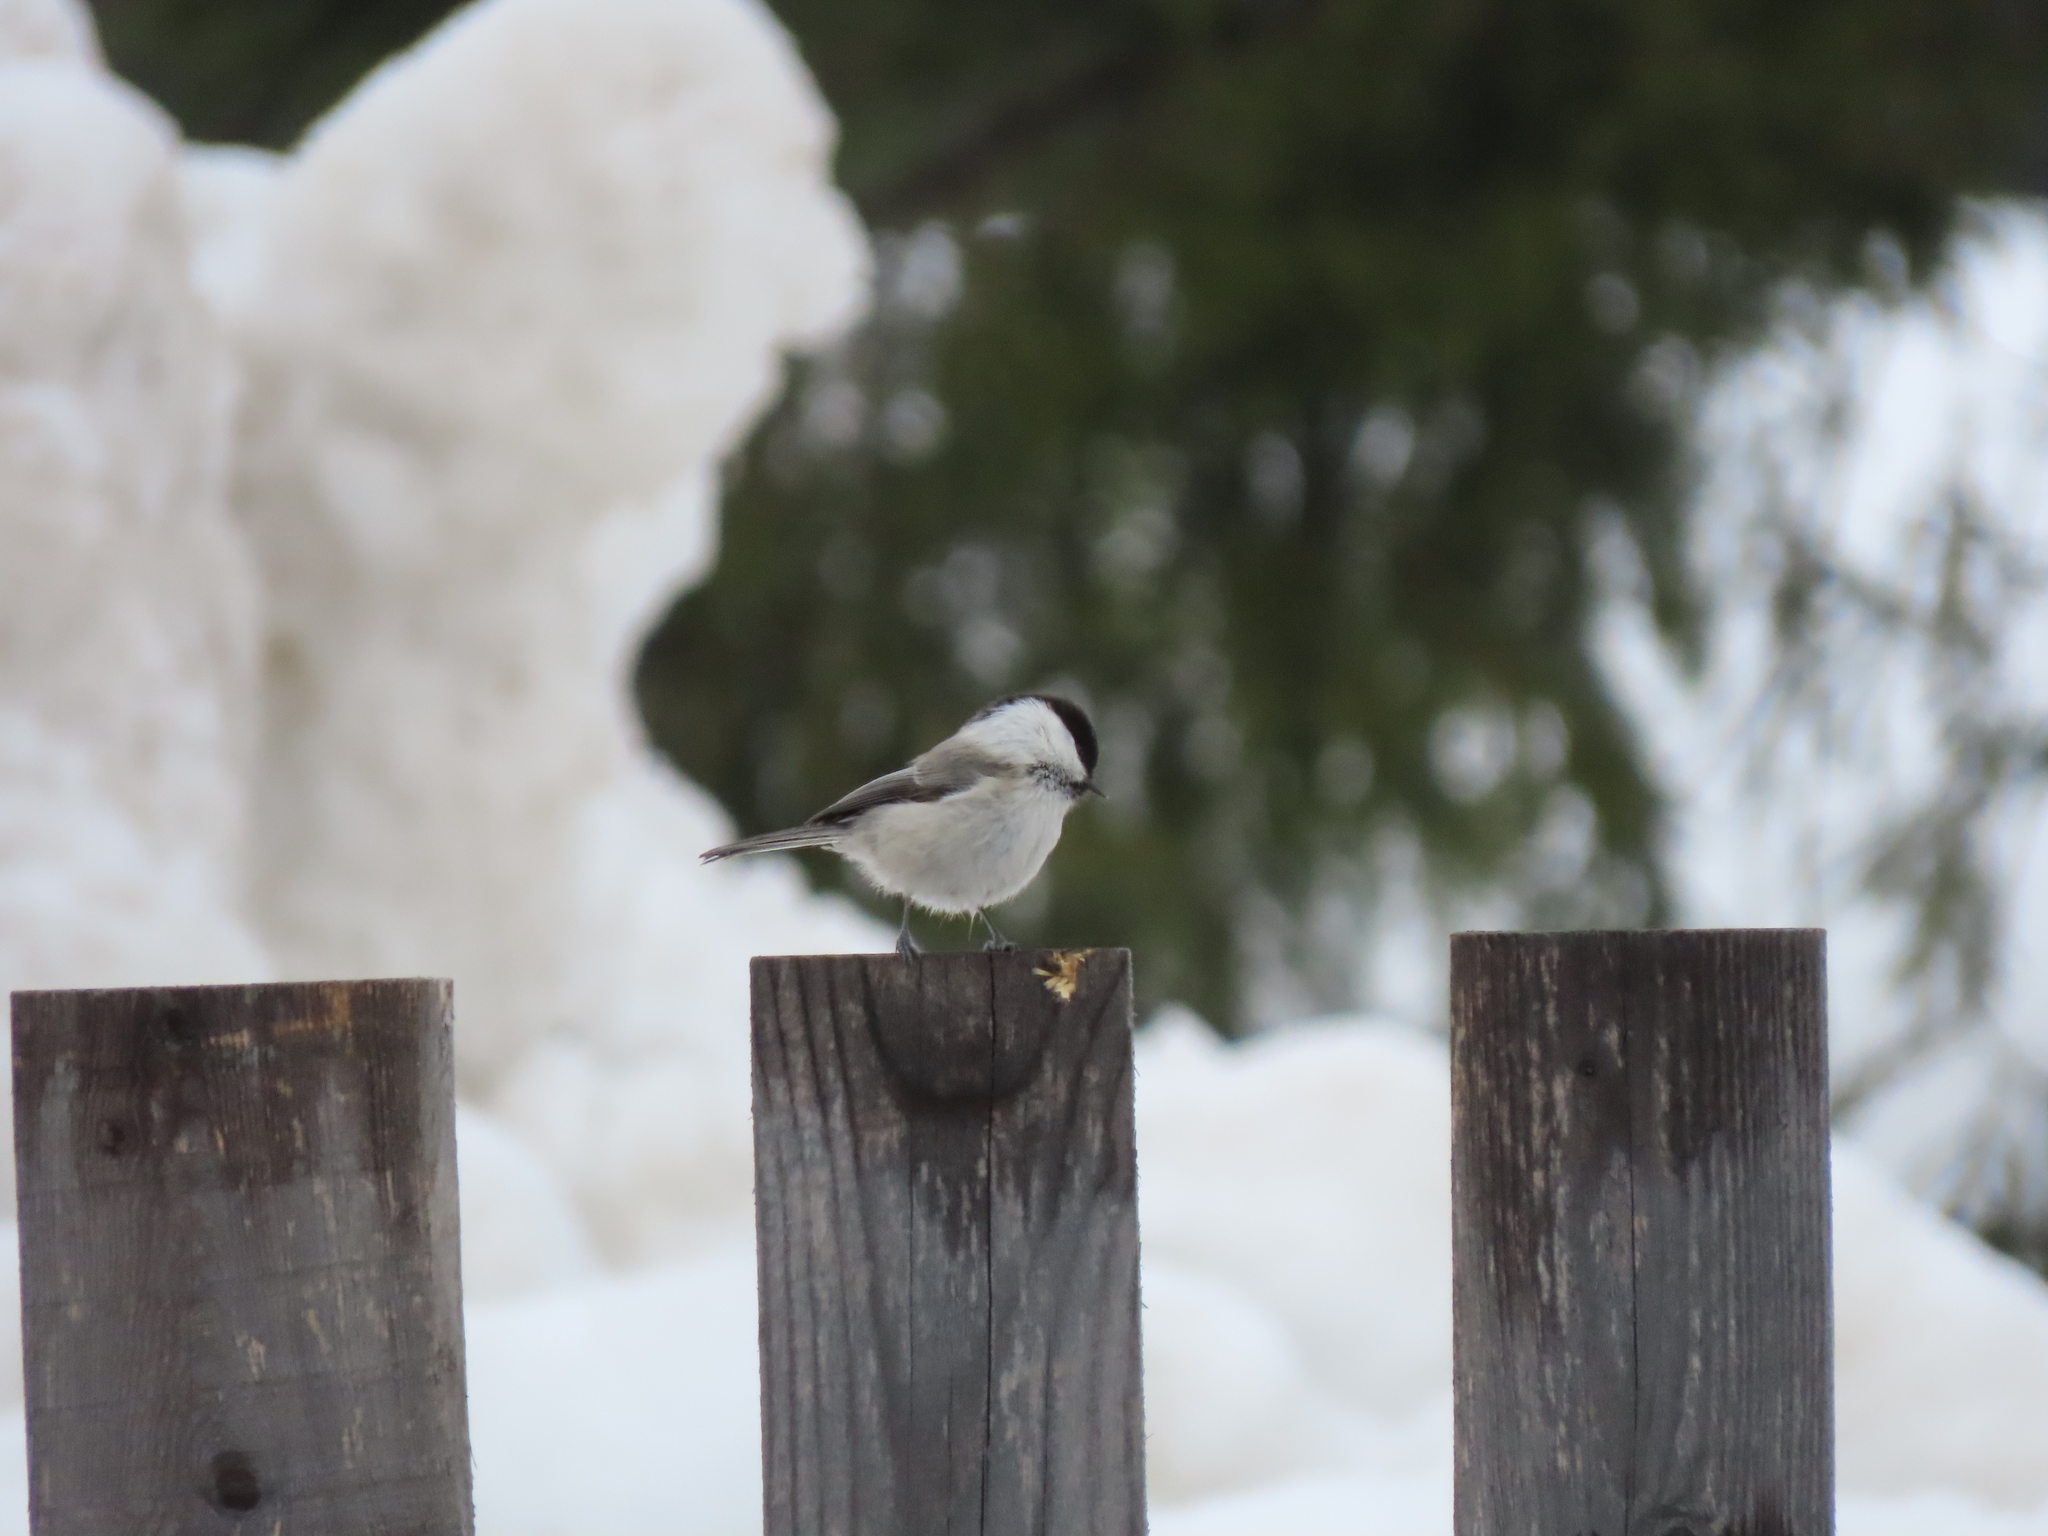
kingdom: Animalia
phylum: Chordata
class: Aves
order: Passeriformes
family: Paridae
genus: Poecile
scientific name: Poecile montanus
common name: Willow tit
